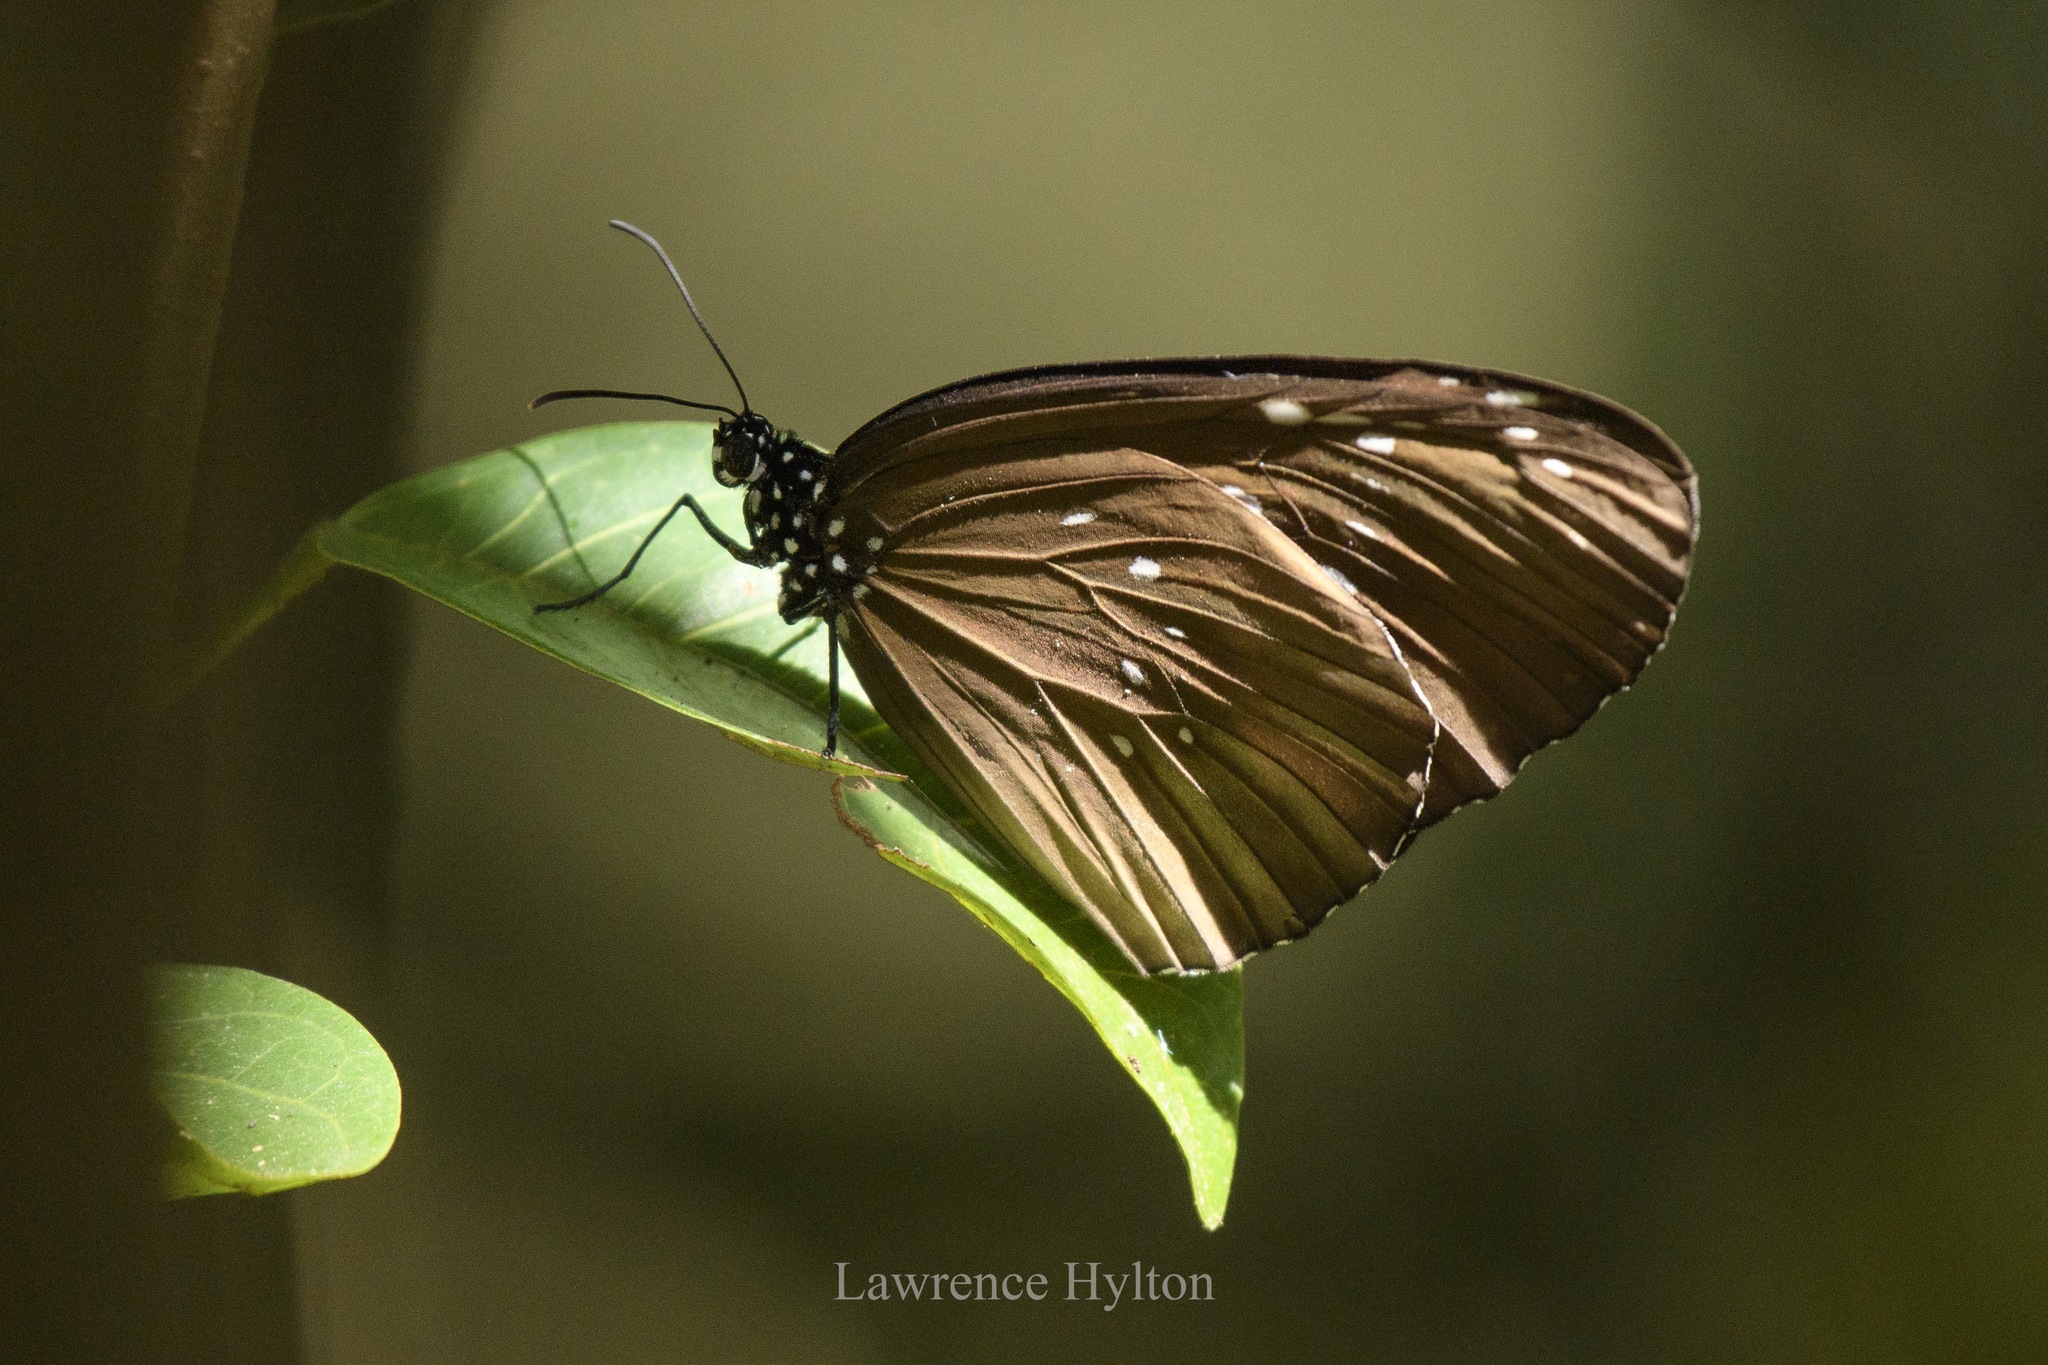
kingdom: Animalia
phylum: Arthropoda
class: Insecta
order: Lepidoptera
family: Nymphalidae
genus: Euploea
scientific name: Euploea core
